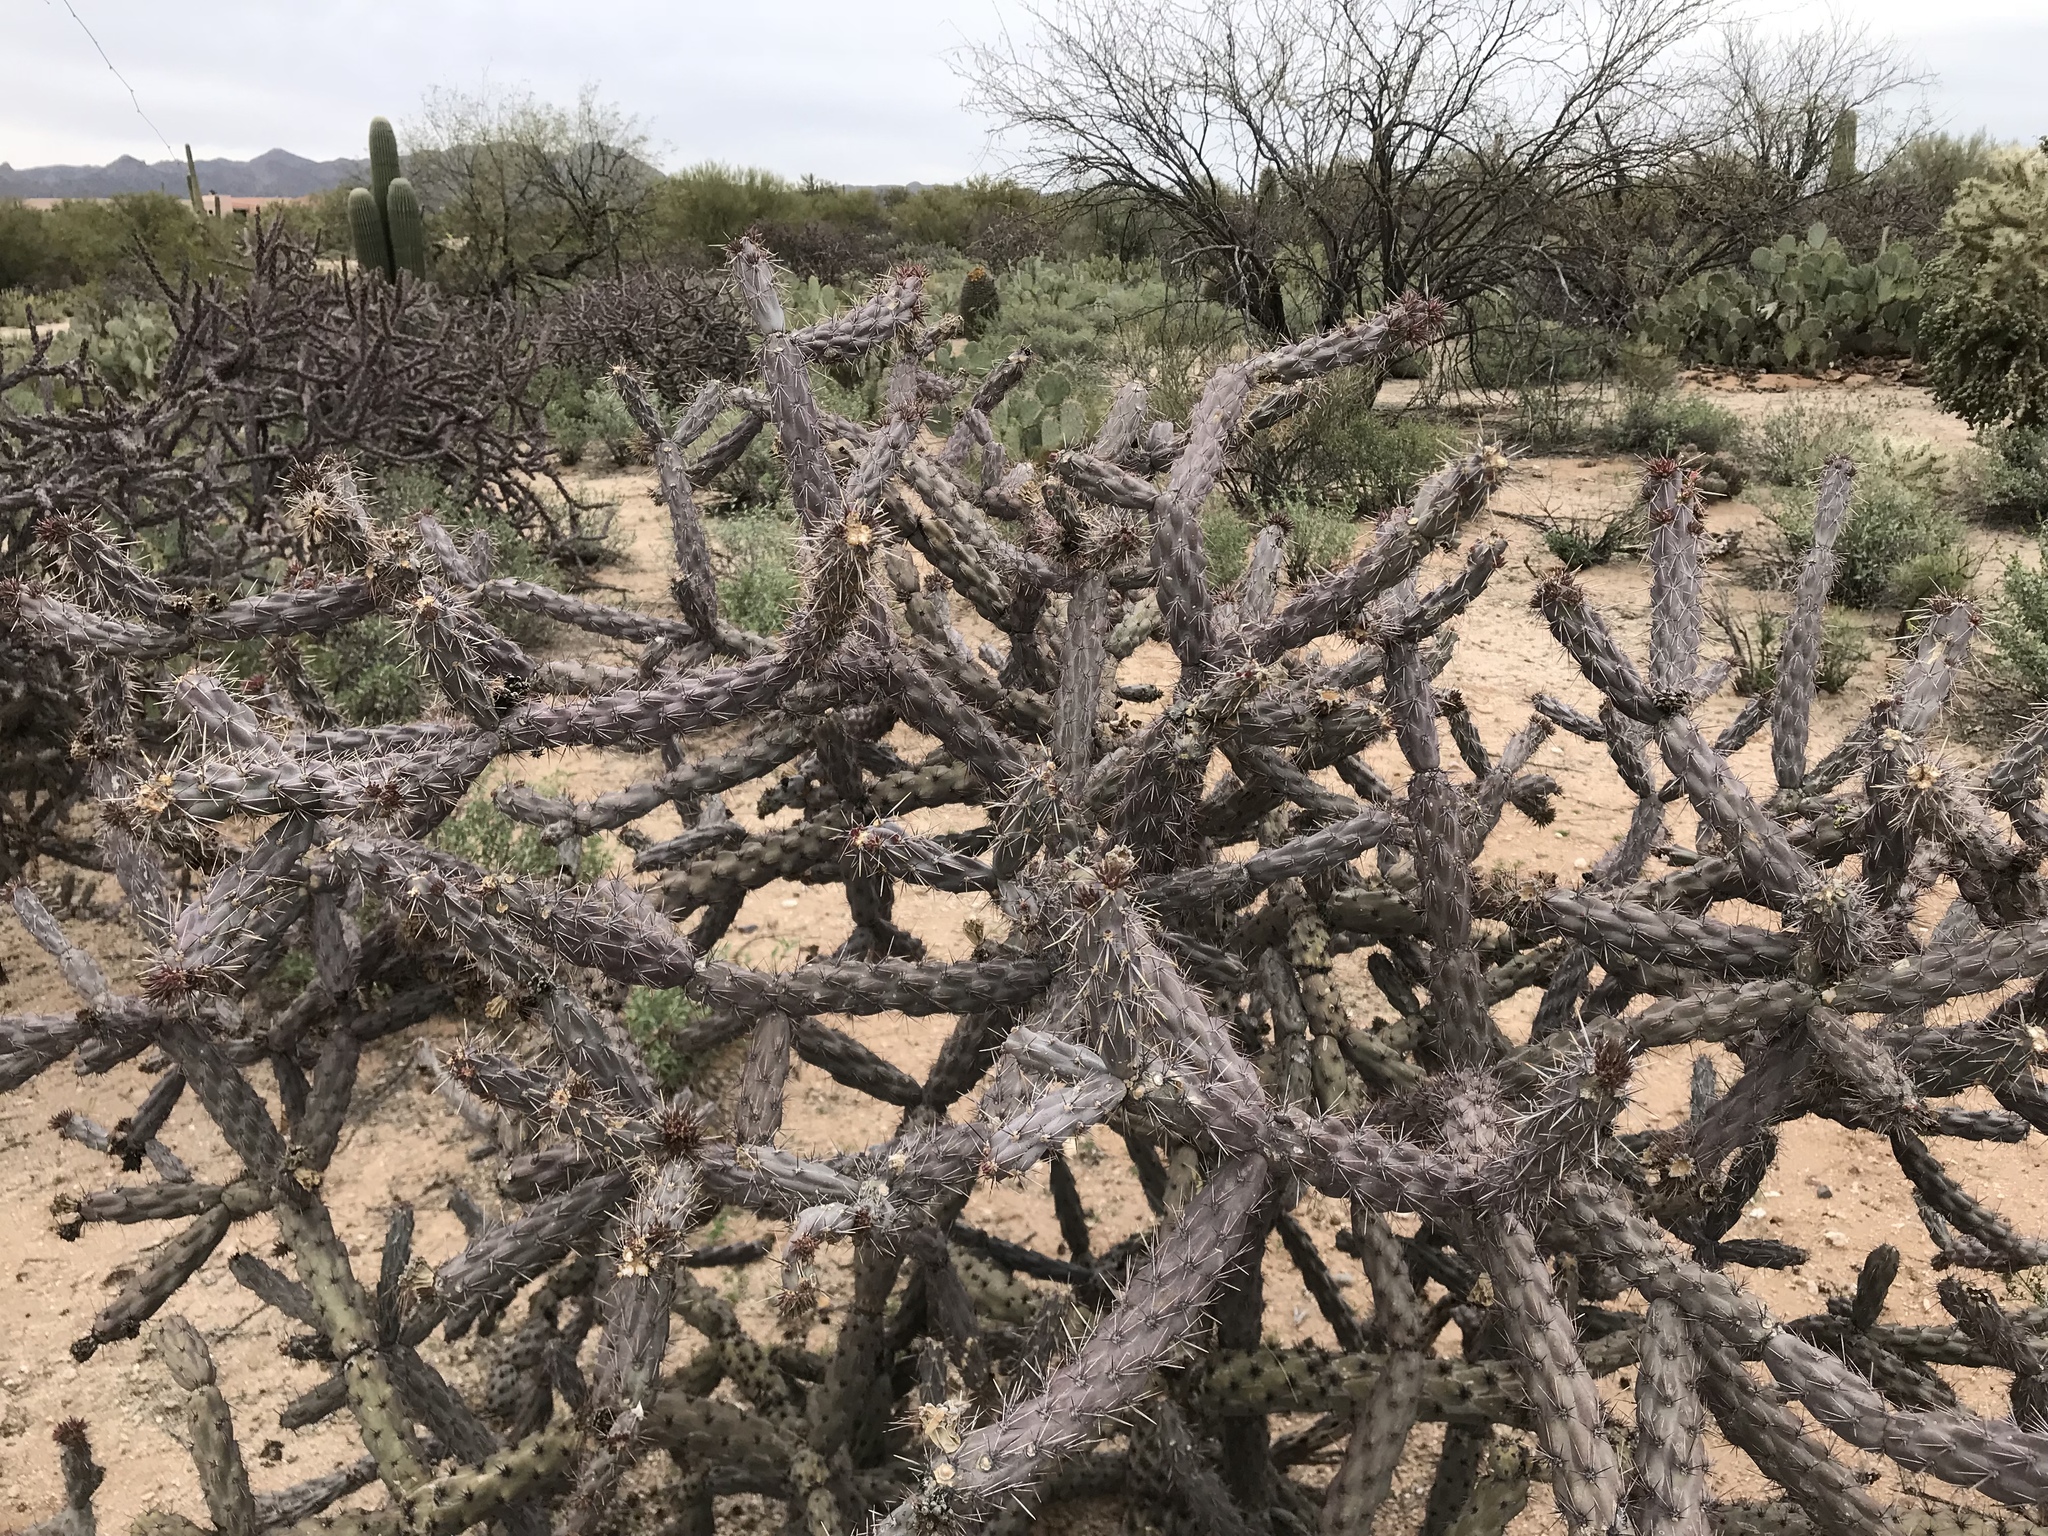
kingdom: Plantae
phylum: Tracheophyta
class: Magnoliopsida
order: Caryophyllales
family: Cactaceae
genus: Cylindropuntia
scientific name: Cylindropuntia thurberi
